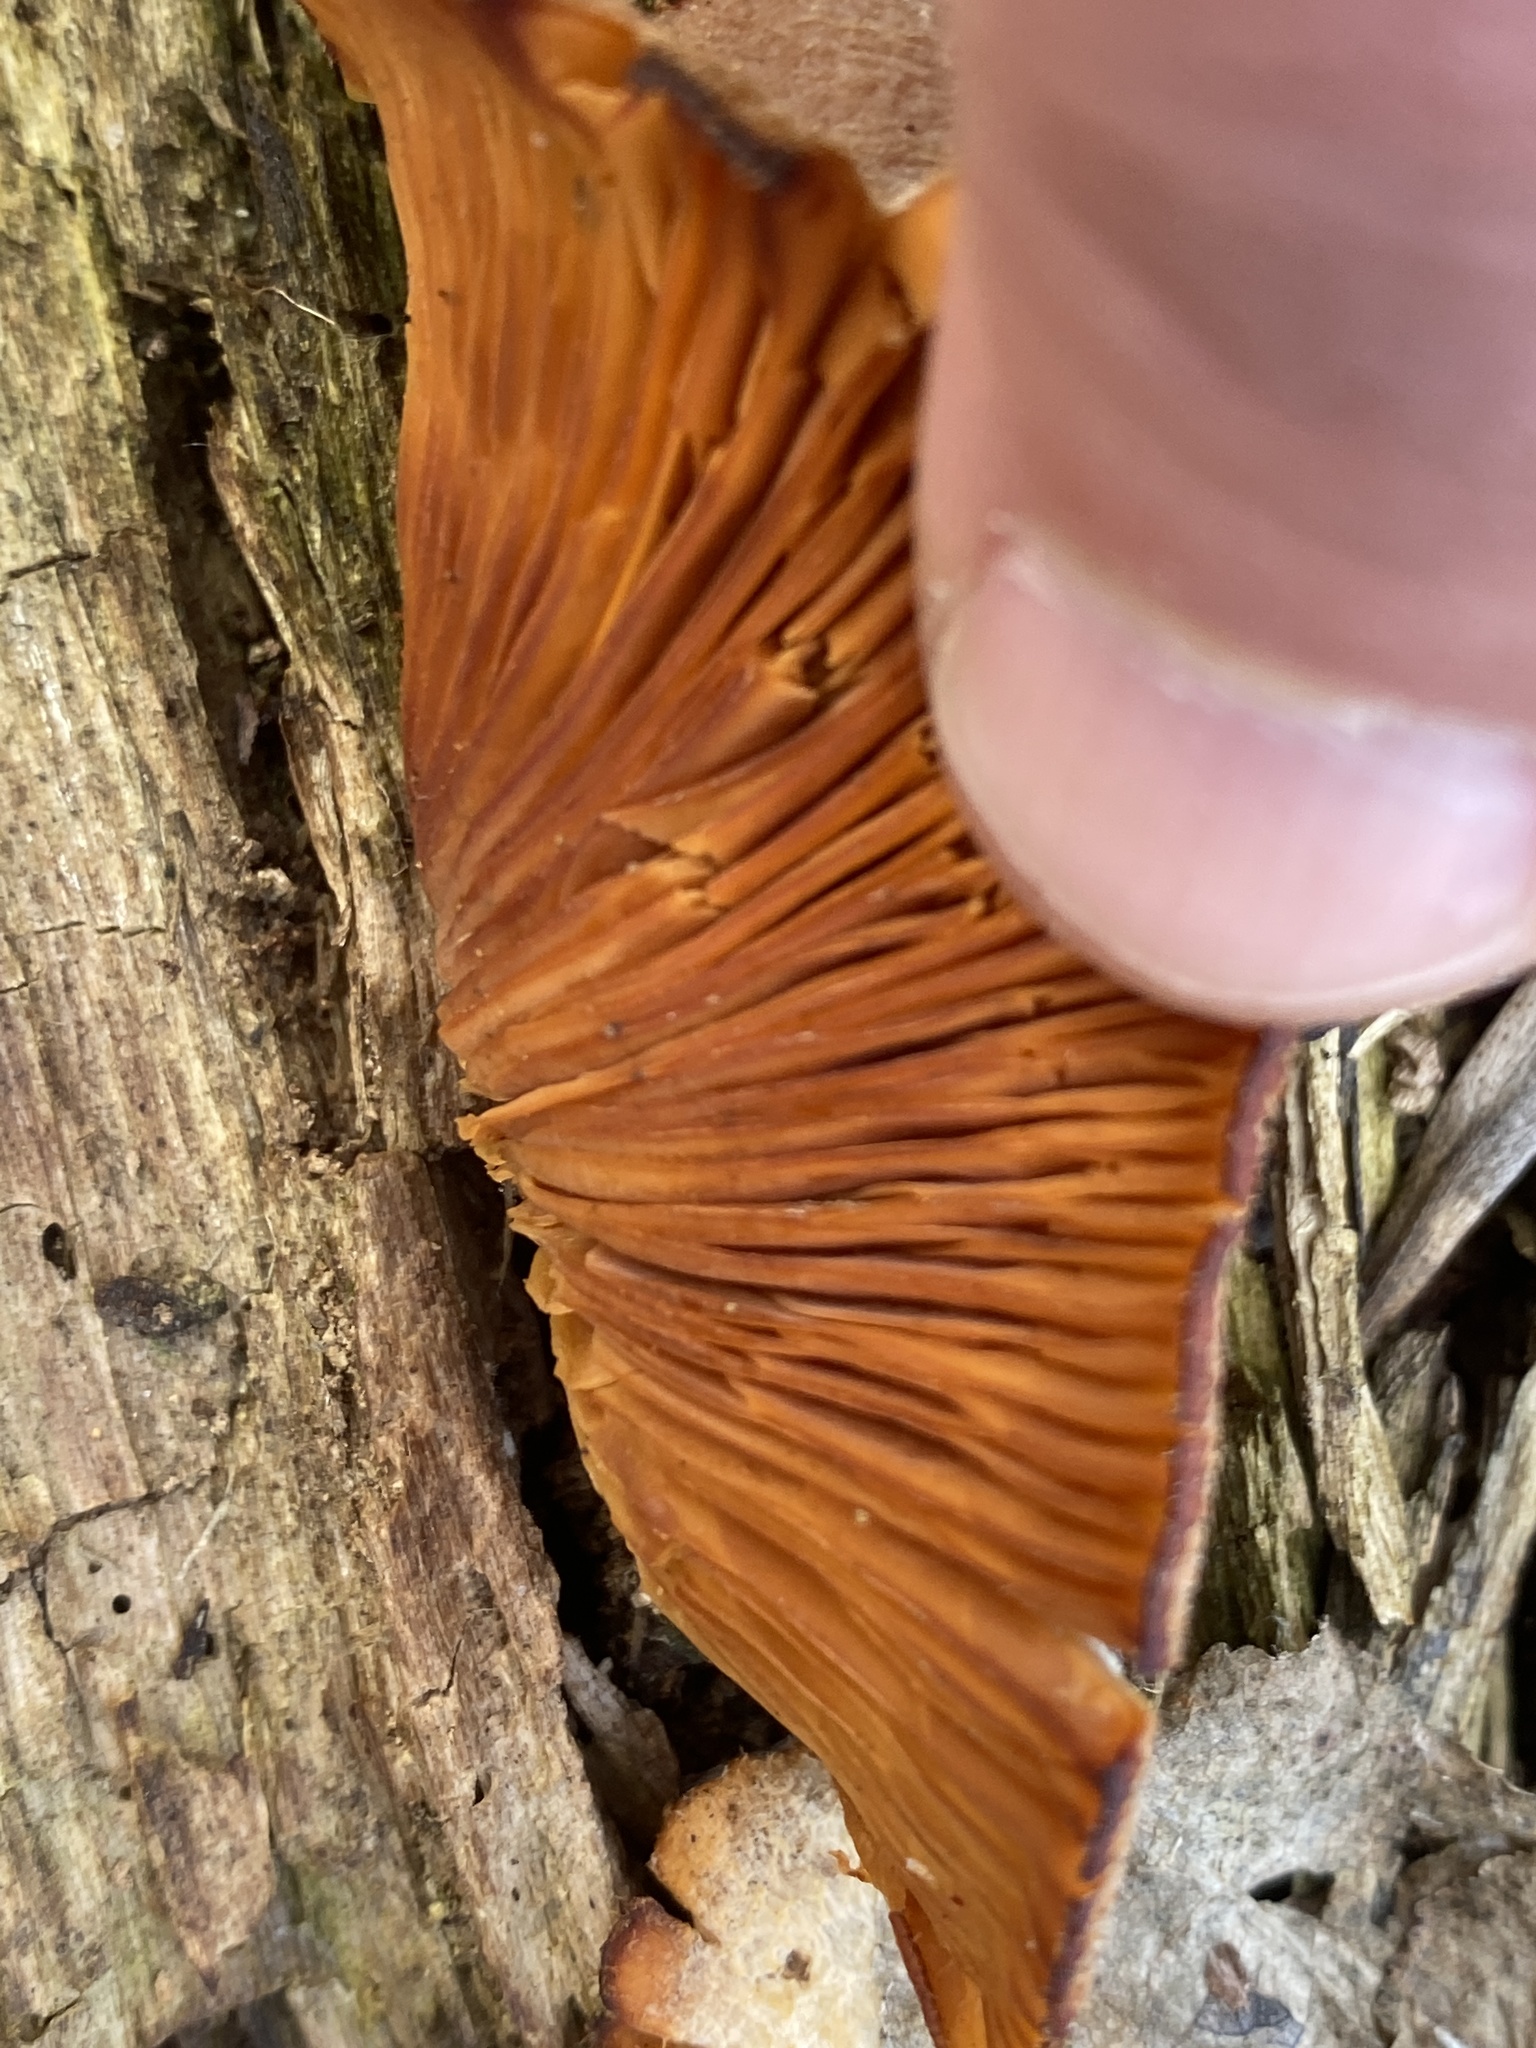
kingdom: Fungi
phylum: Basidiomycota
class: Agaricomycetes
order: Agaricales
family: Phyllotopsidaceae
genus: Phyllotopsis
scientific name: Phyllotopsis nidulans
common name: Orange mock oyster
